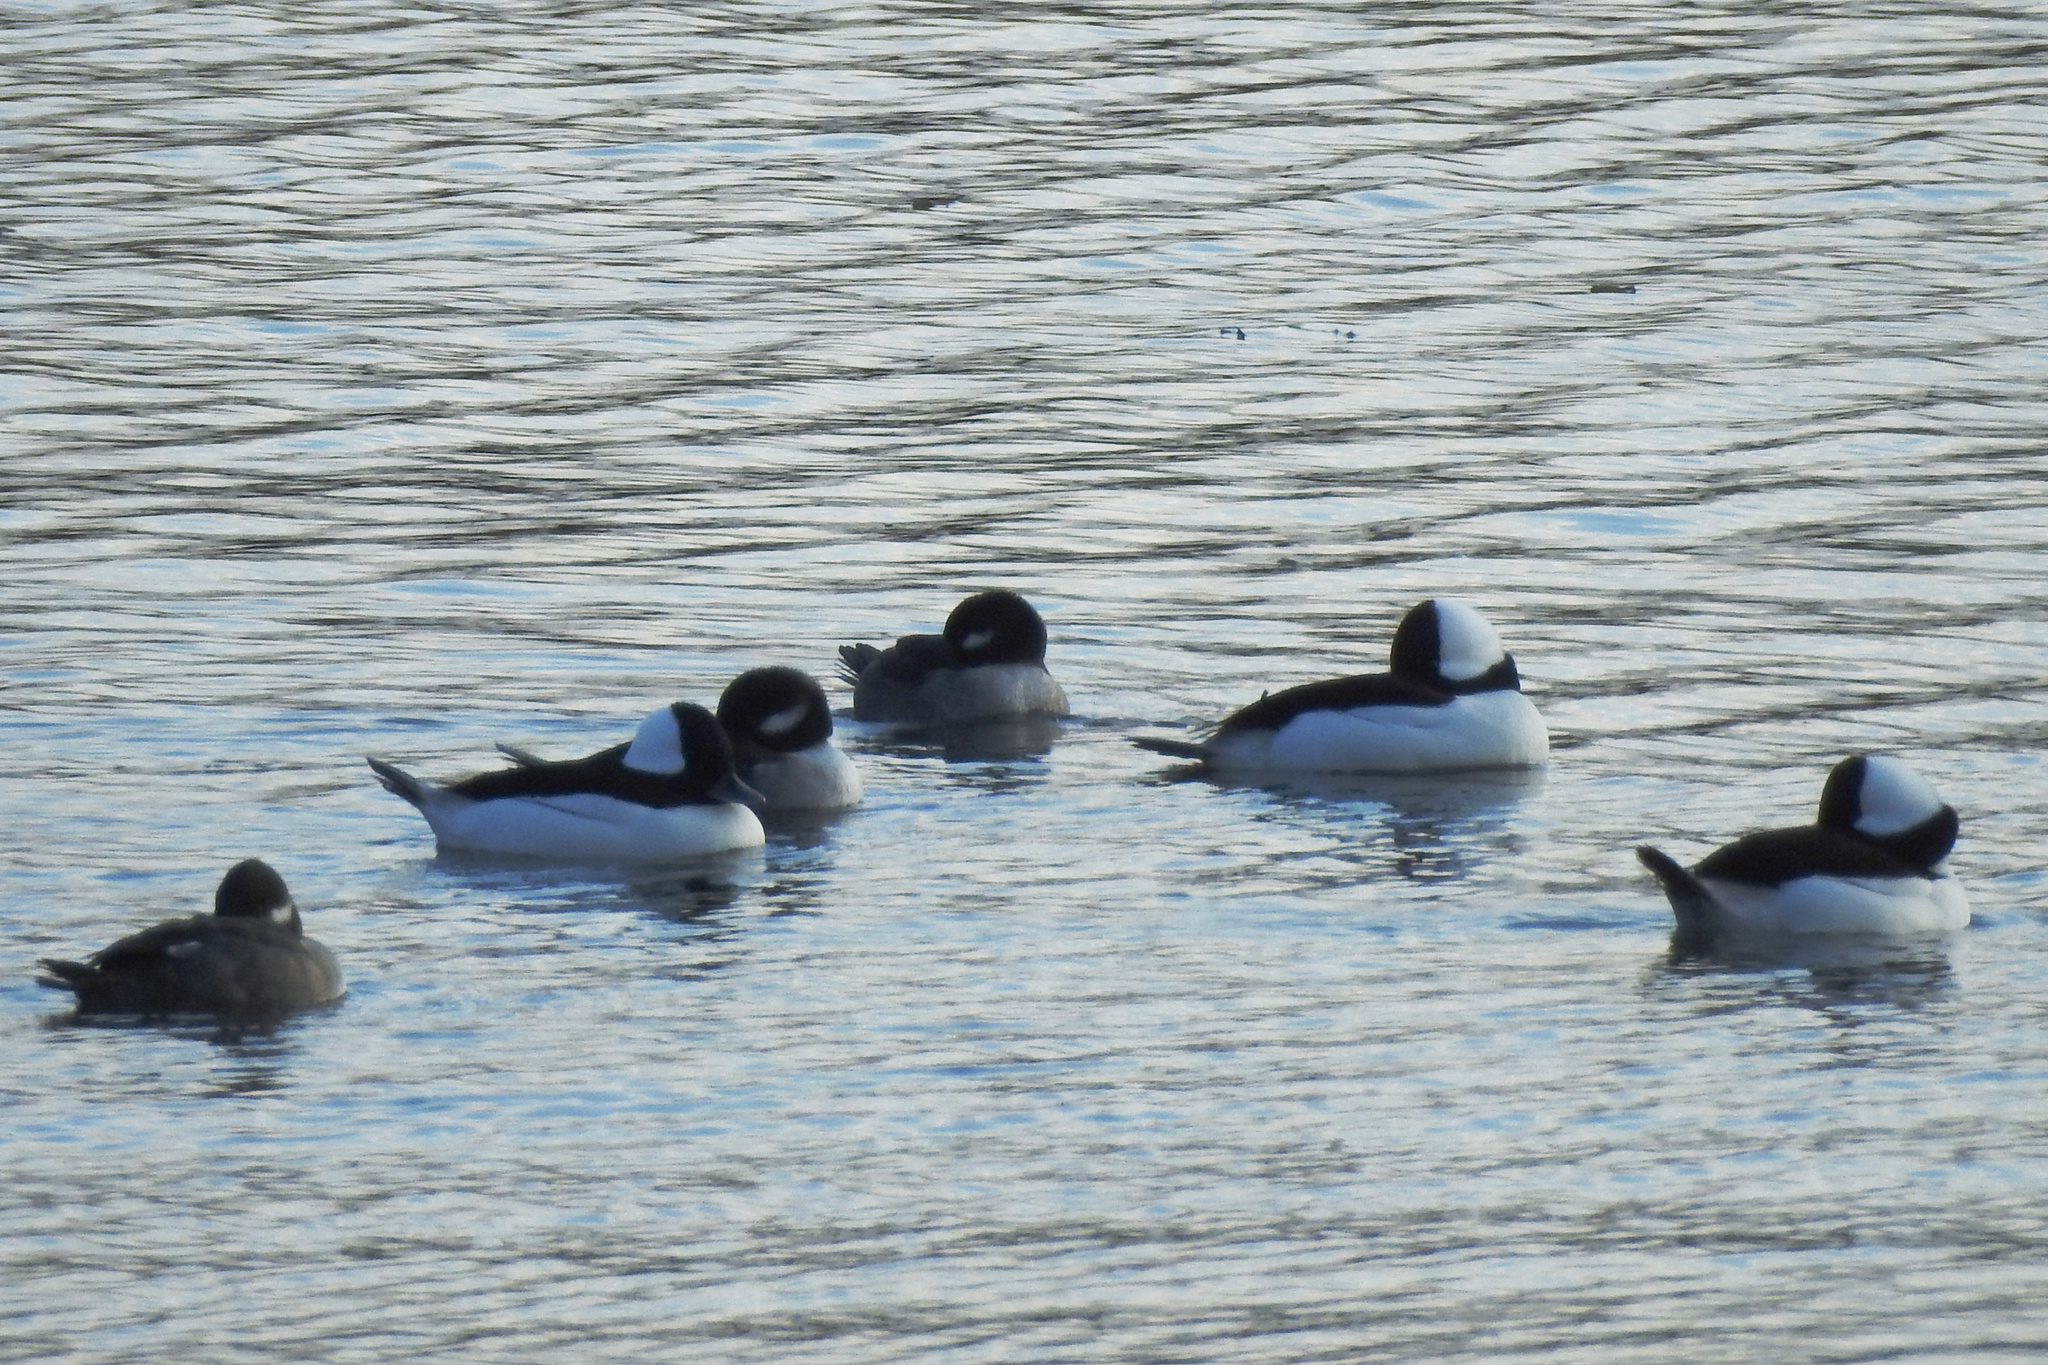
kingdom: Animalia
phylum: Chordata
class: Aves
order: Anseriformes
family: Anatidae
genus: Bucephala
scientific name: Bucephala albeola
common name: Bufflehead
